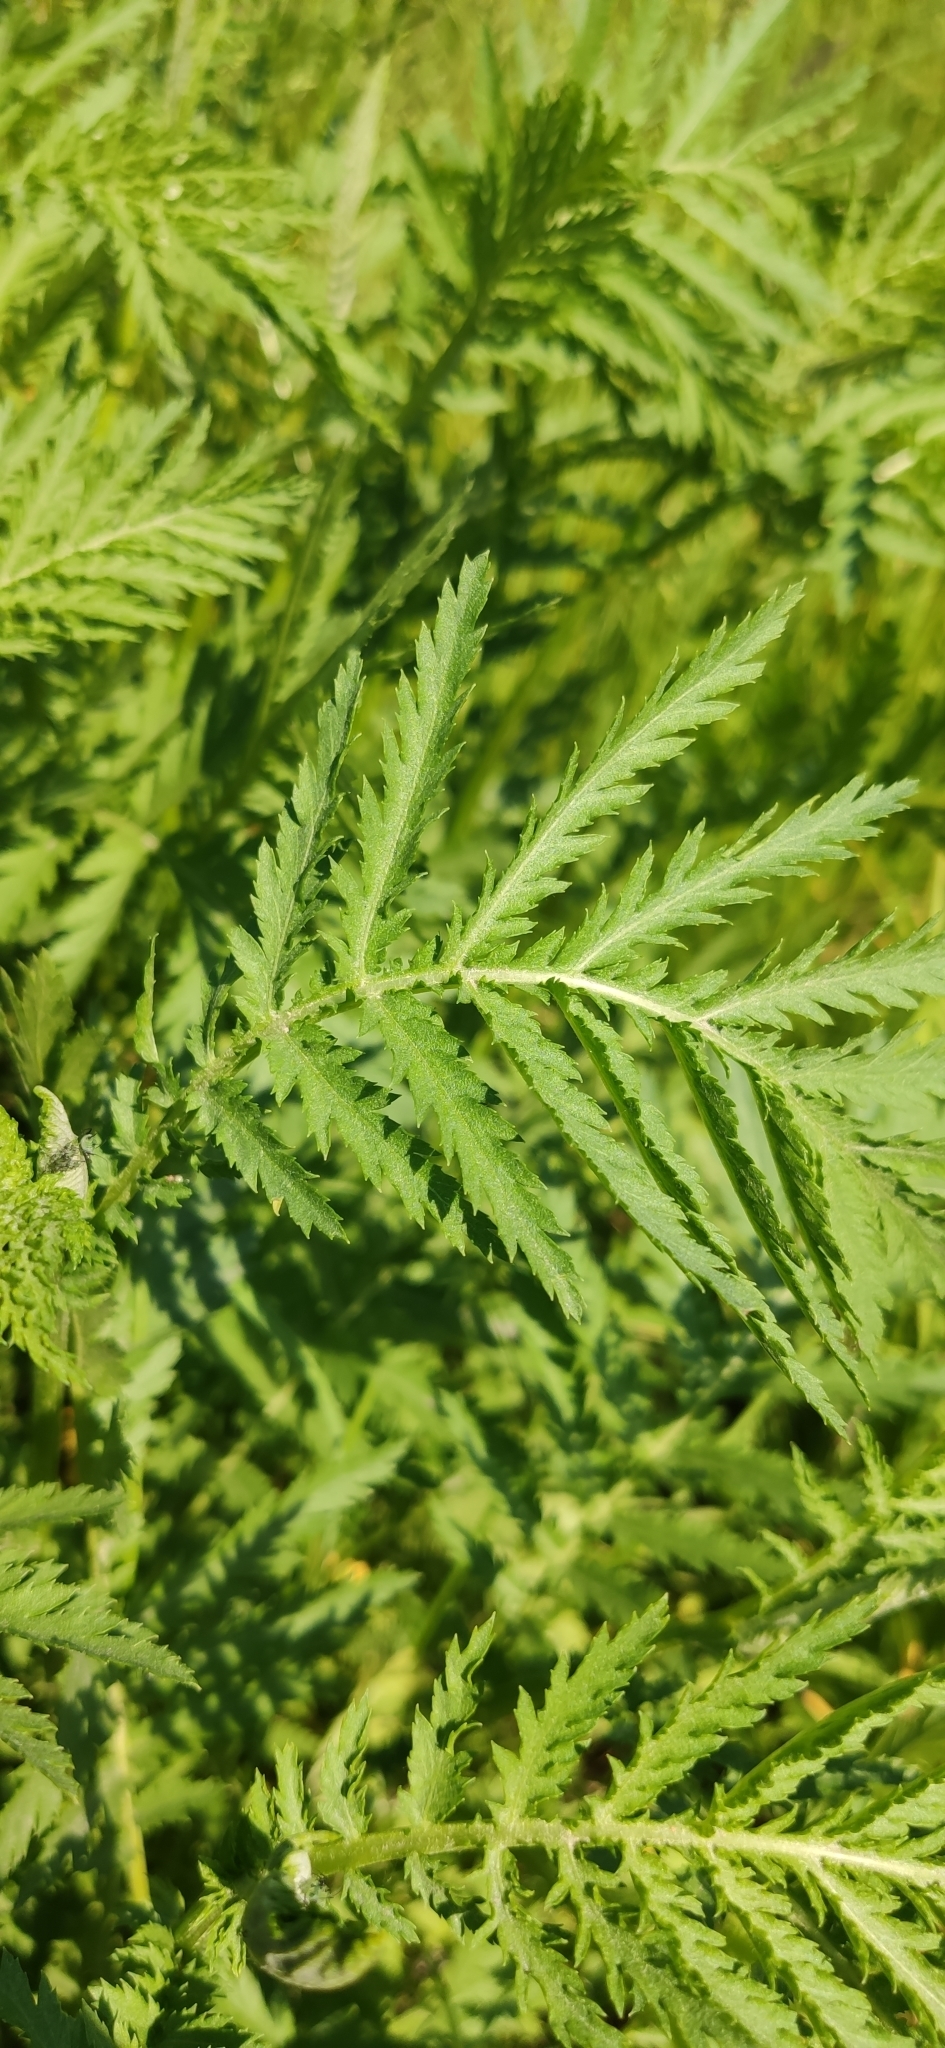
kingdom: Plantae
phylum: Tracheophyta
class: Magnoliopsida
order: Asterales
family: Asteraceae
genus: Tanacetum
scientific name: Tanacetum vulgare
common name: Common tansy
